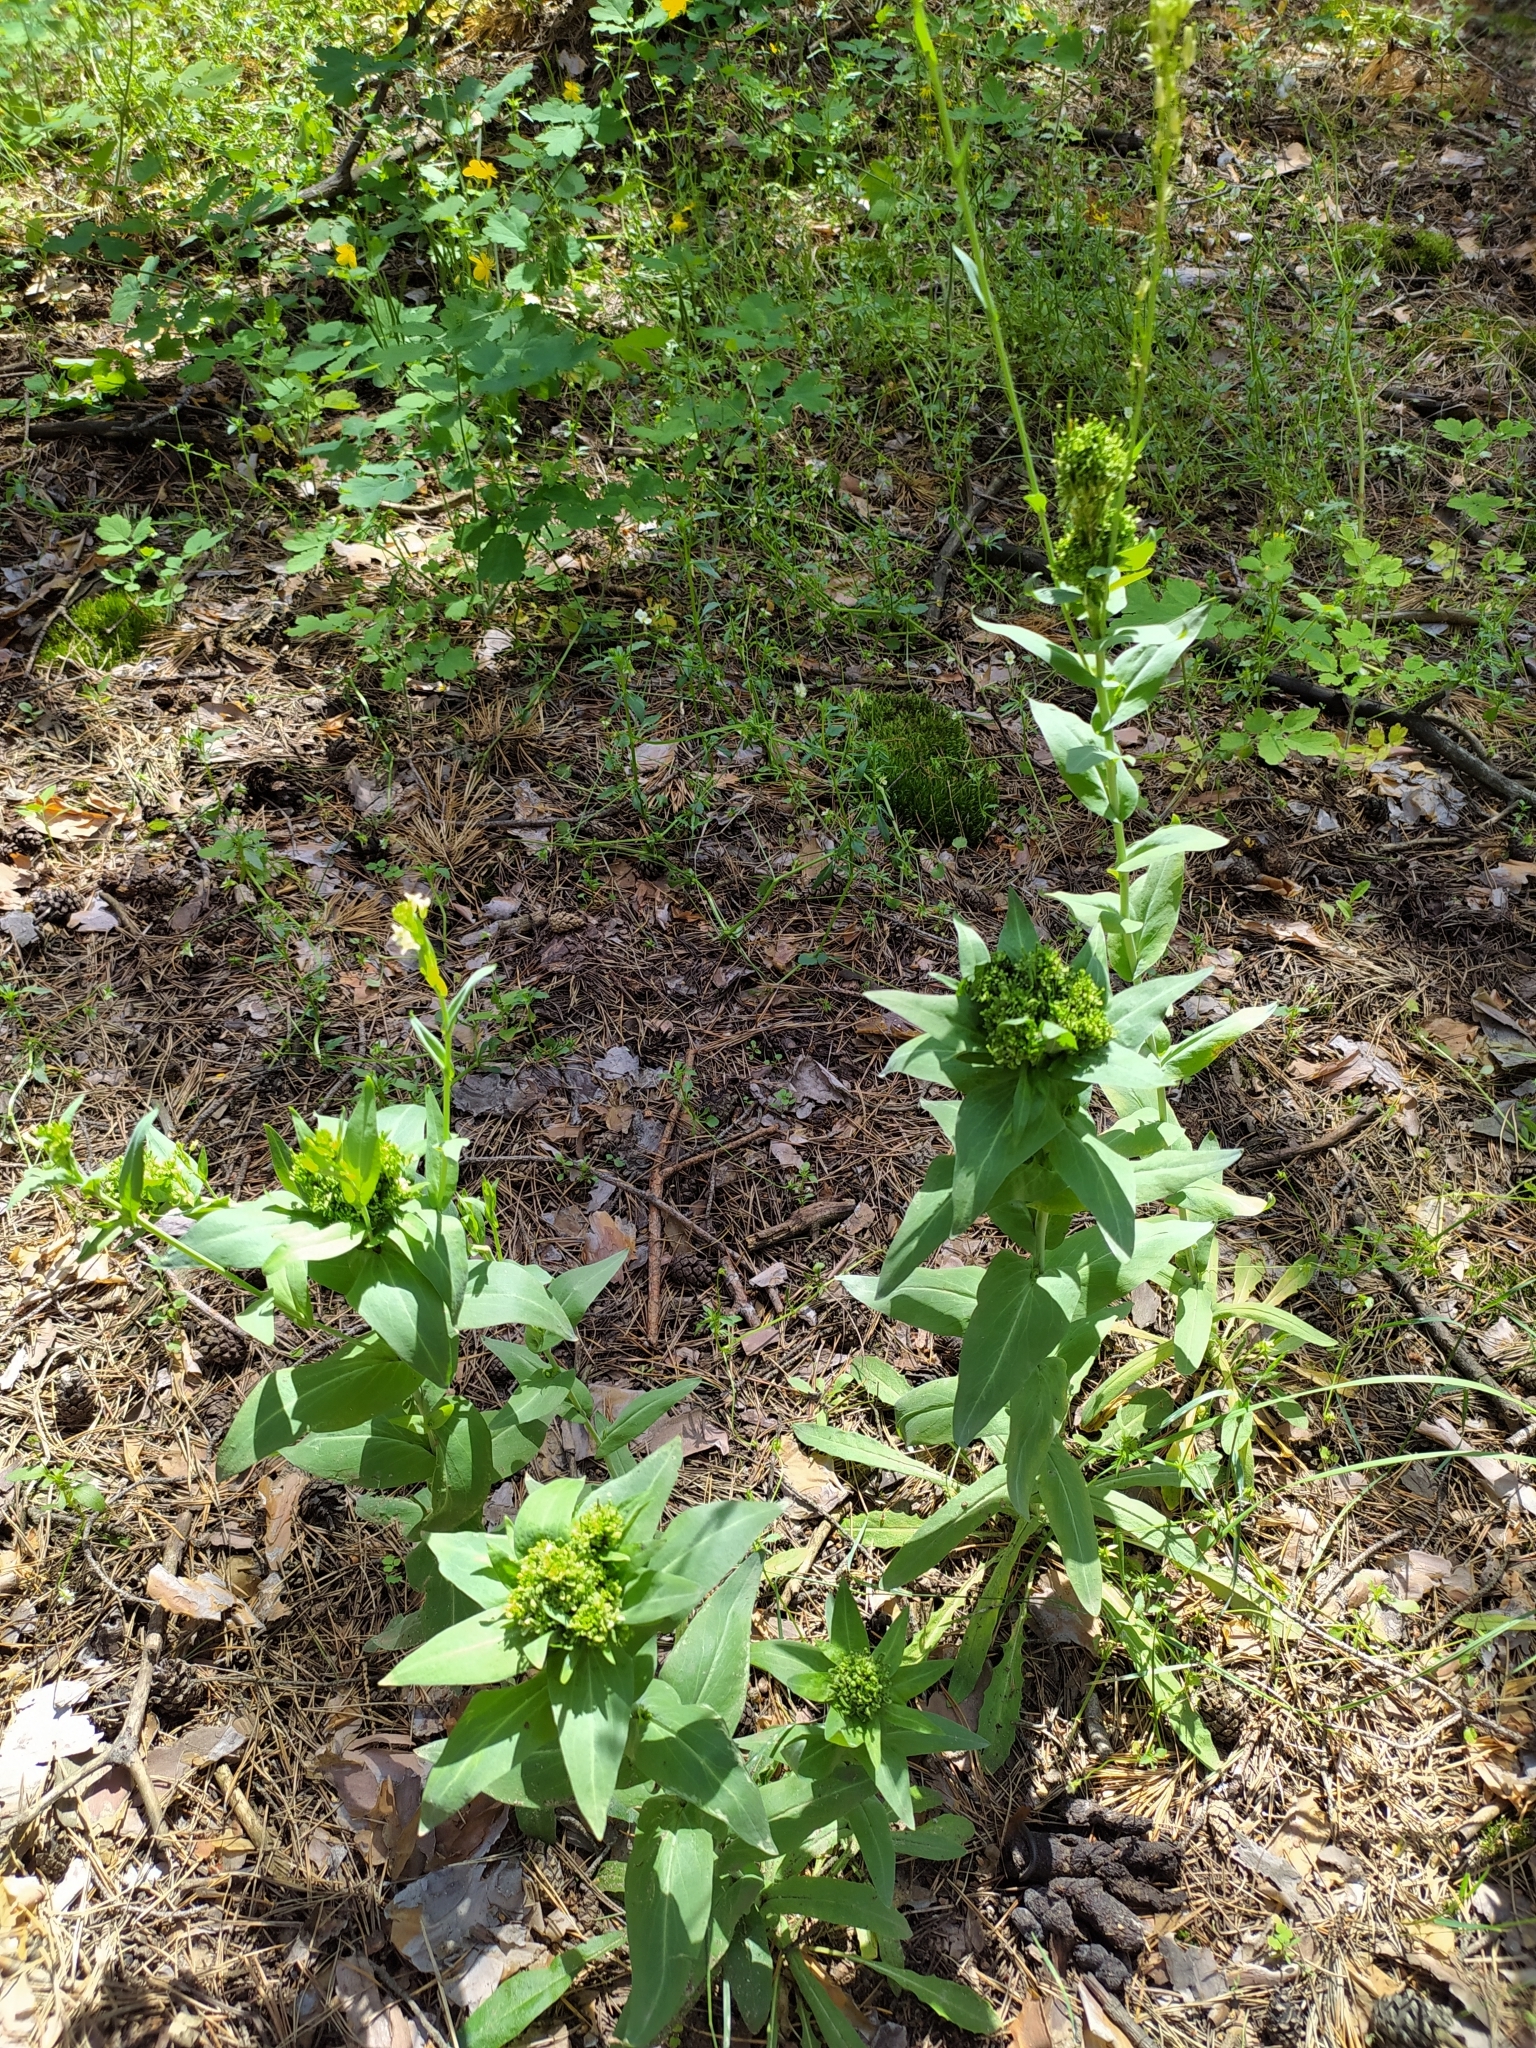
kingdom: Plantae
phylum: Tracheophyta
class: Magnoliopsida
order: Brassicales
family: Brassicaceae
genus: Turritis
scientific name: Turritis glabra
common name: Tower rockcress
